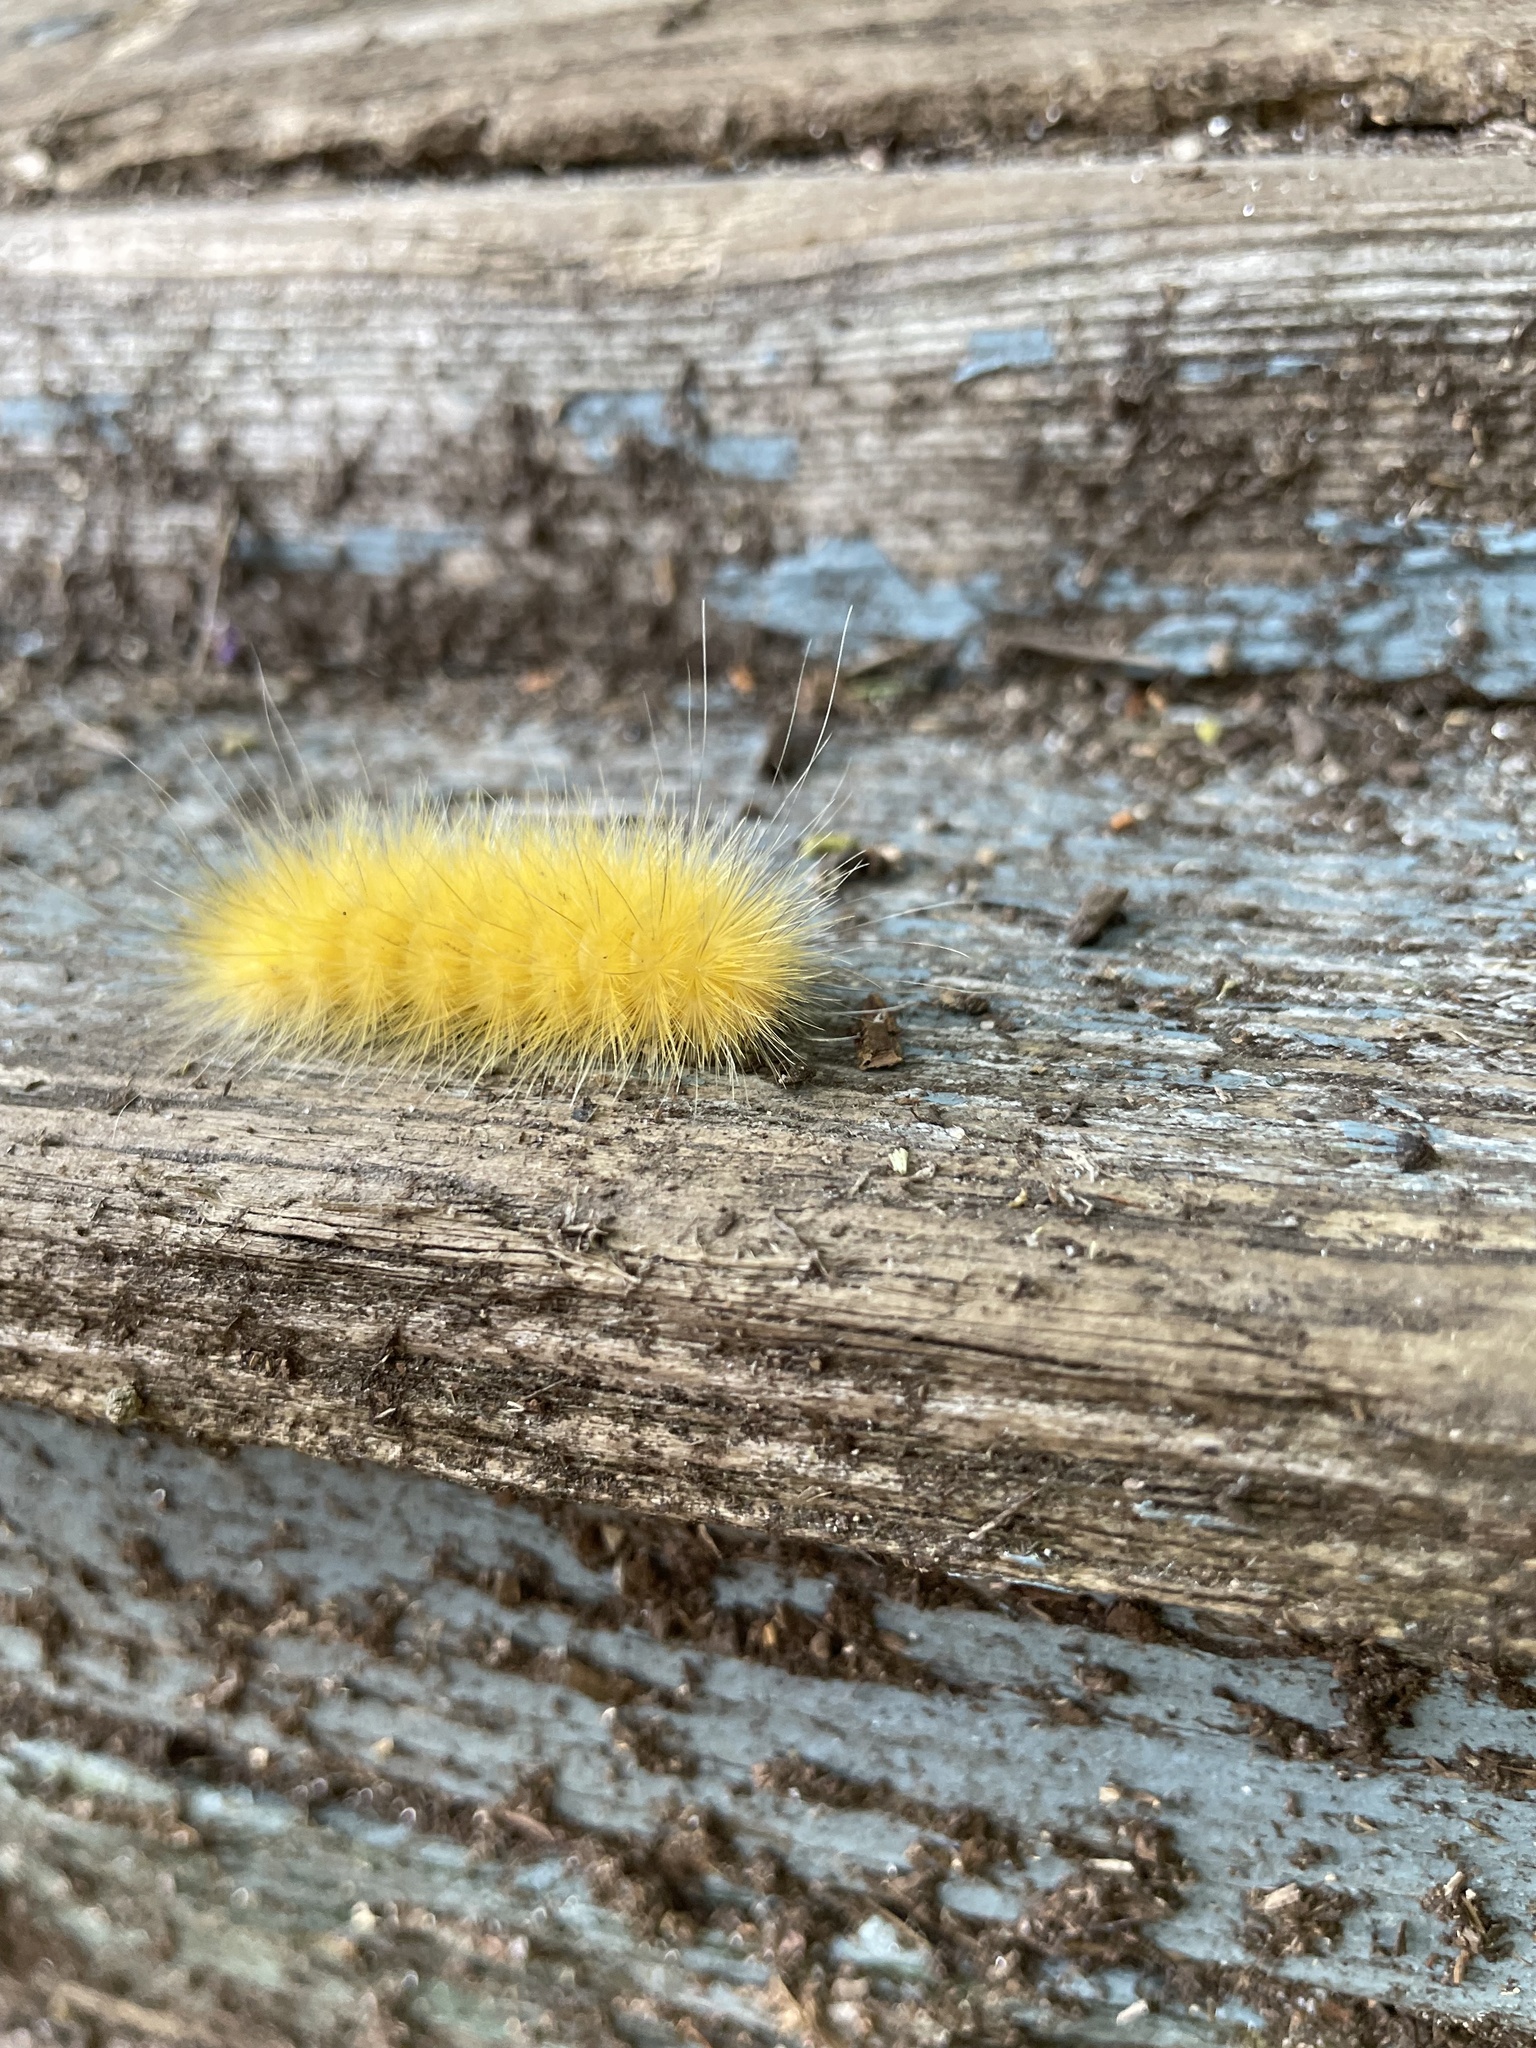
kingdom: Animalia
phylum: Arthropoda
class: Insecta
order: Lepidoptera
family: Erebidae
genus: Spilosoma
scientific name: Spilosoma virginica
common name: Virginia tiger moth
